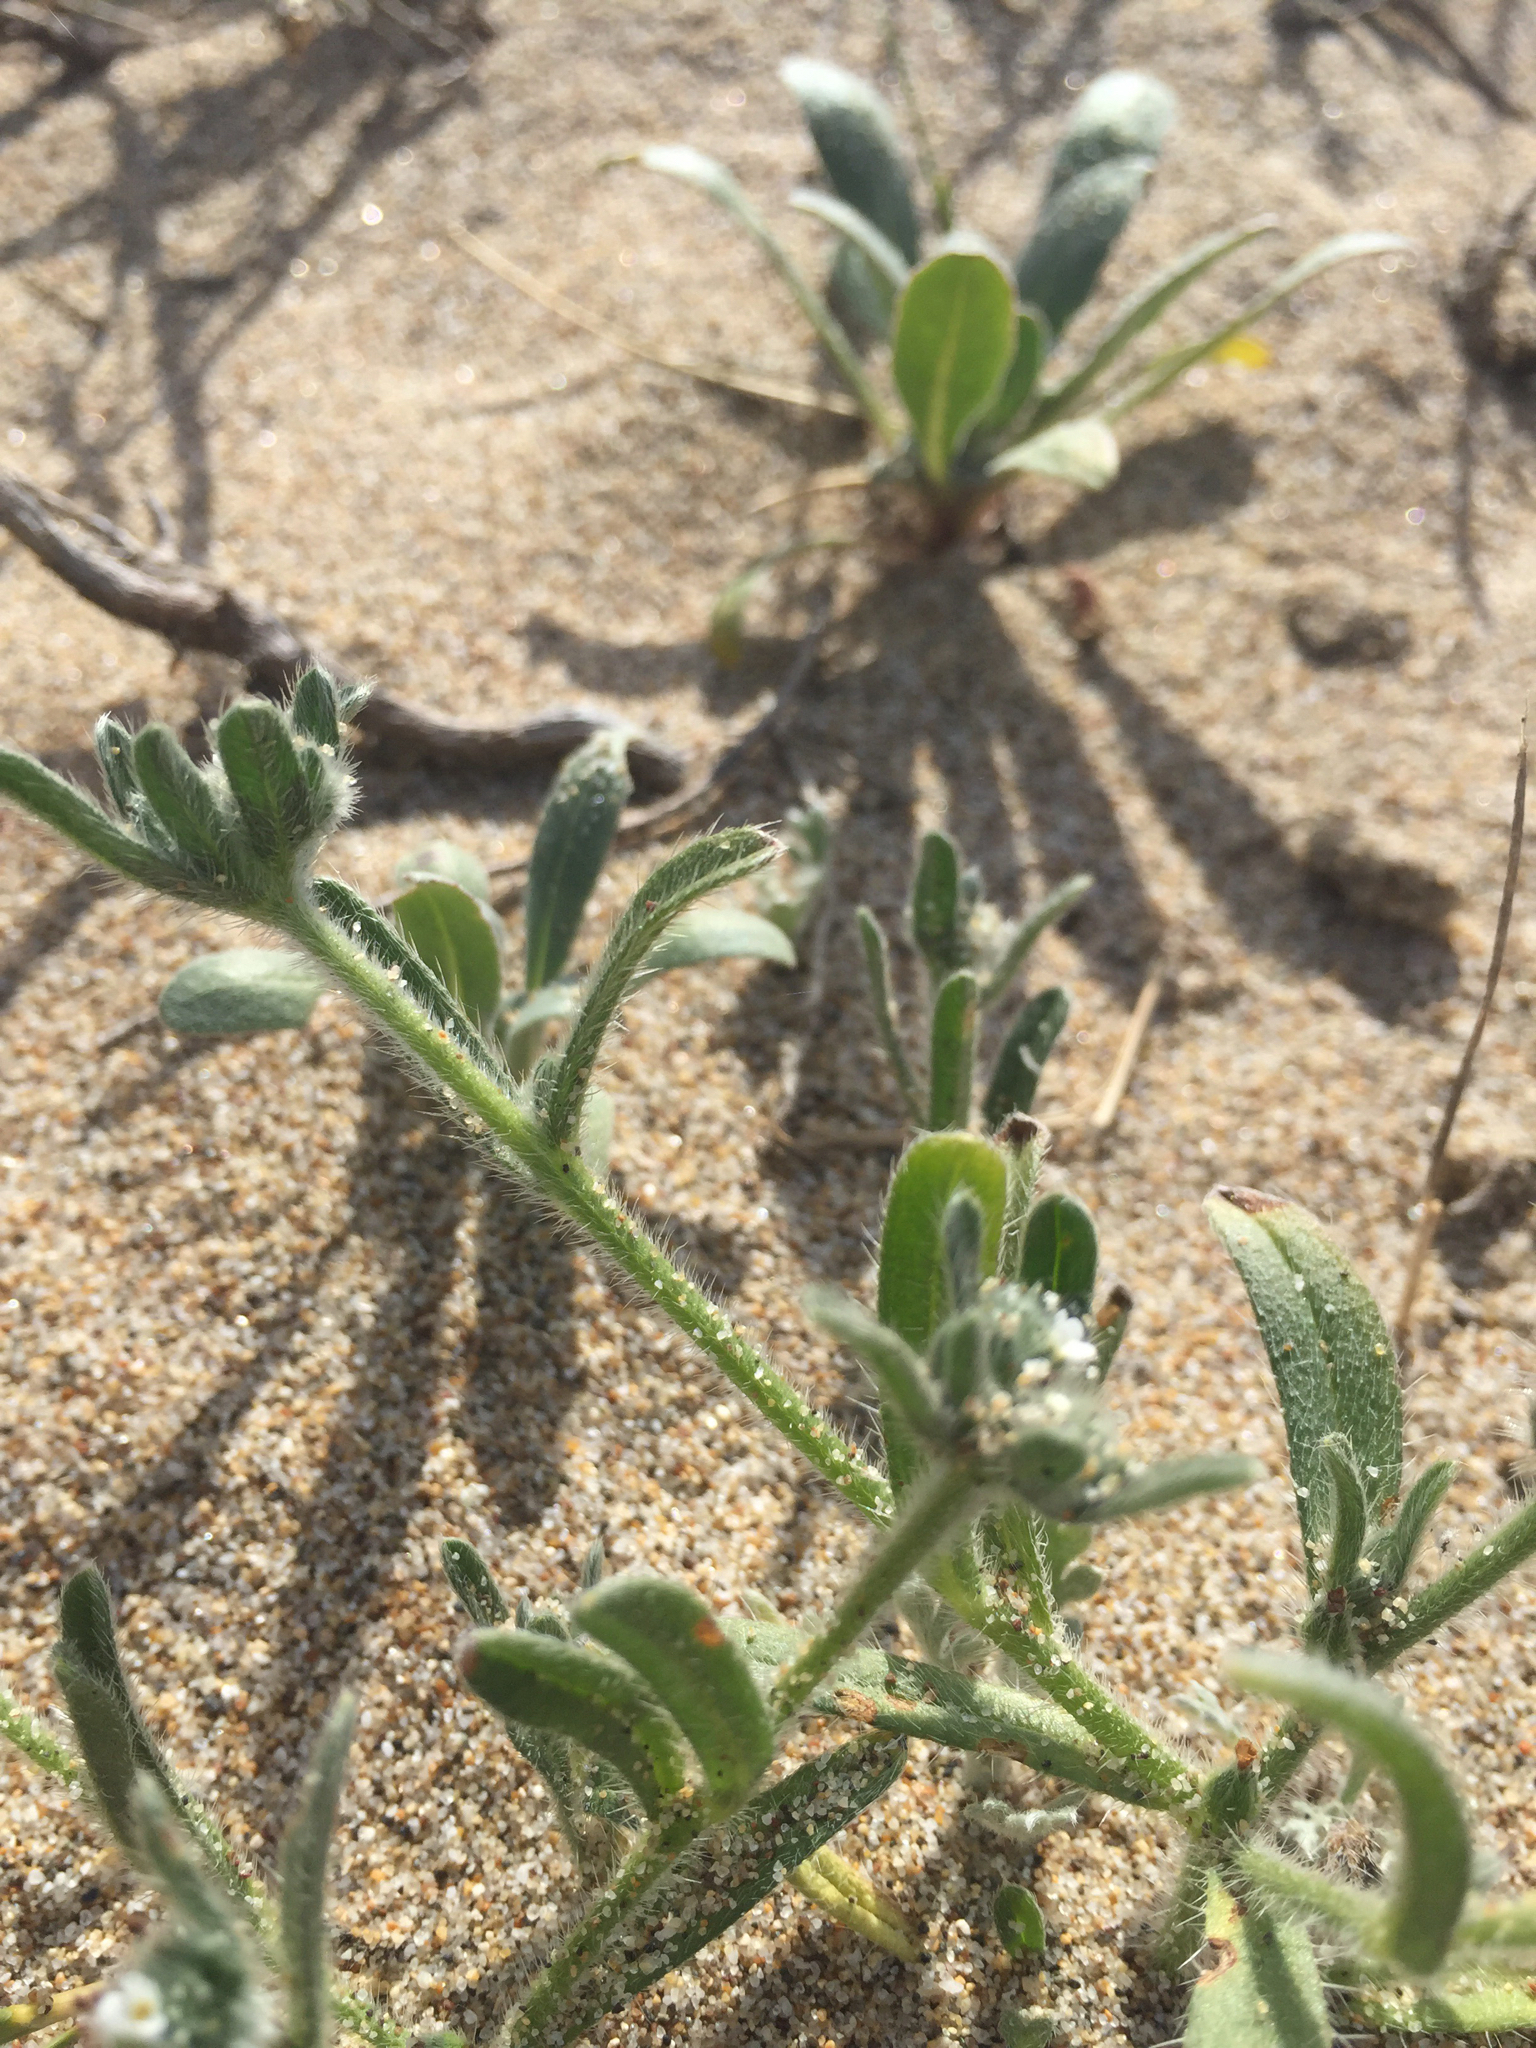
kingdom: Plantae
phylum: Tracheophyta
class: Magnoliopsida
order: Boraginales
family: Boraginaceae
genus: Cryptantha
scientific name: Cryptantha leiocarpa
